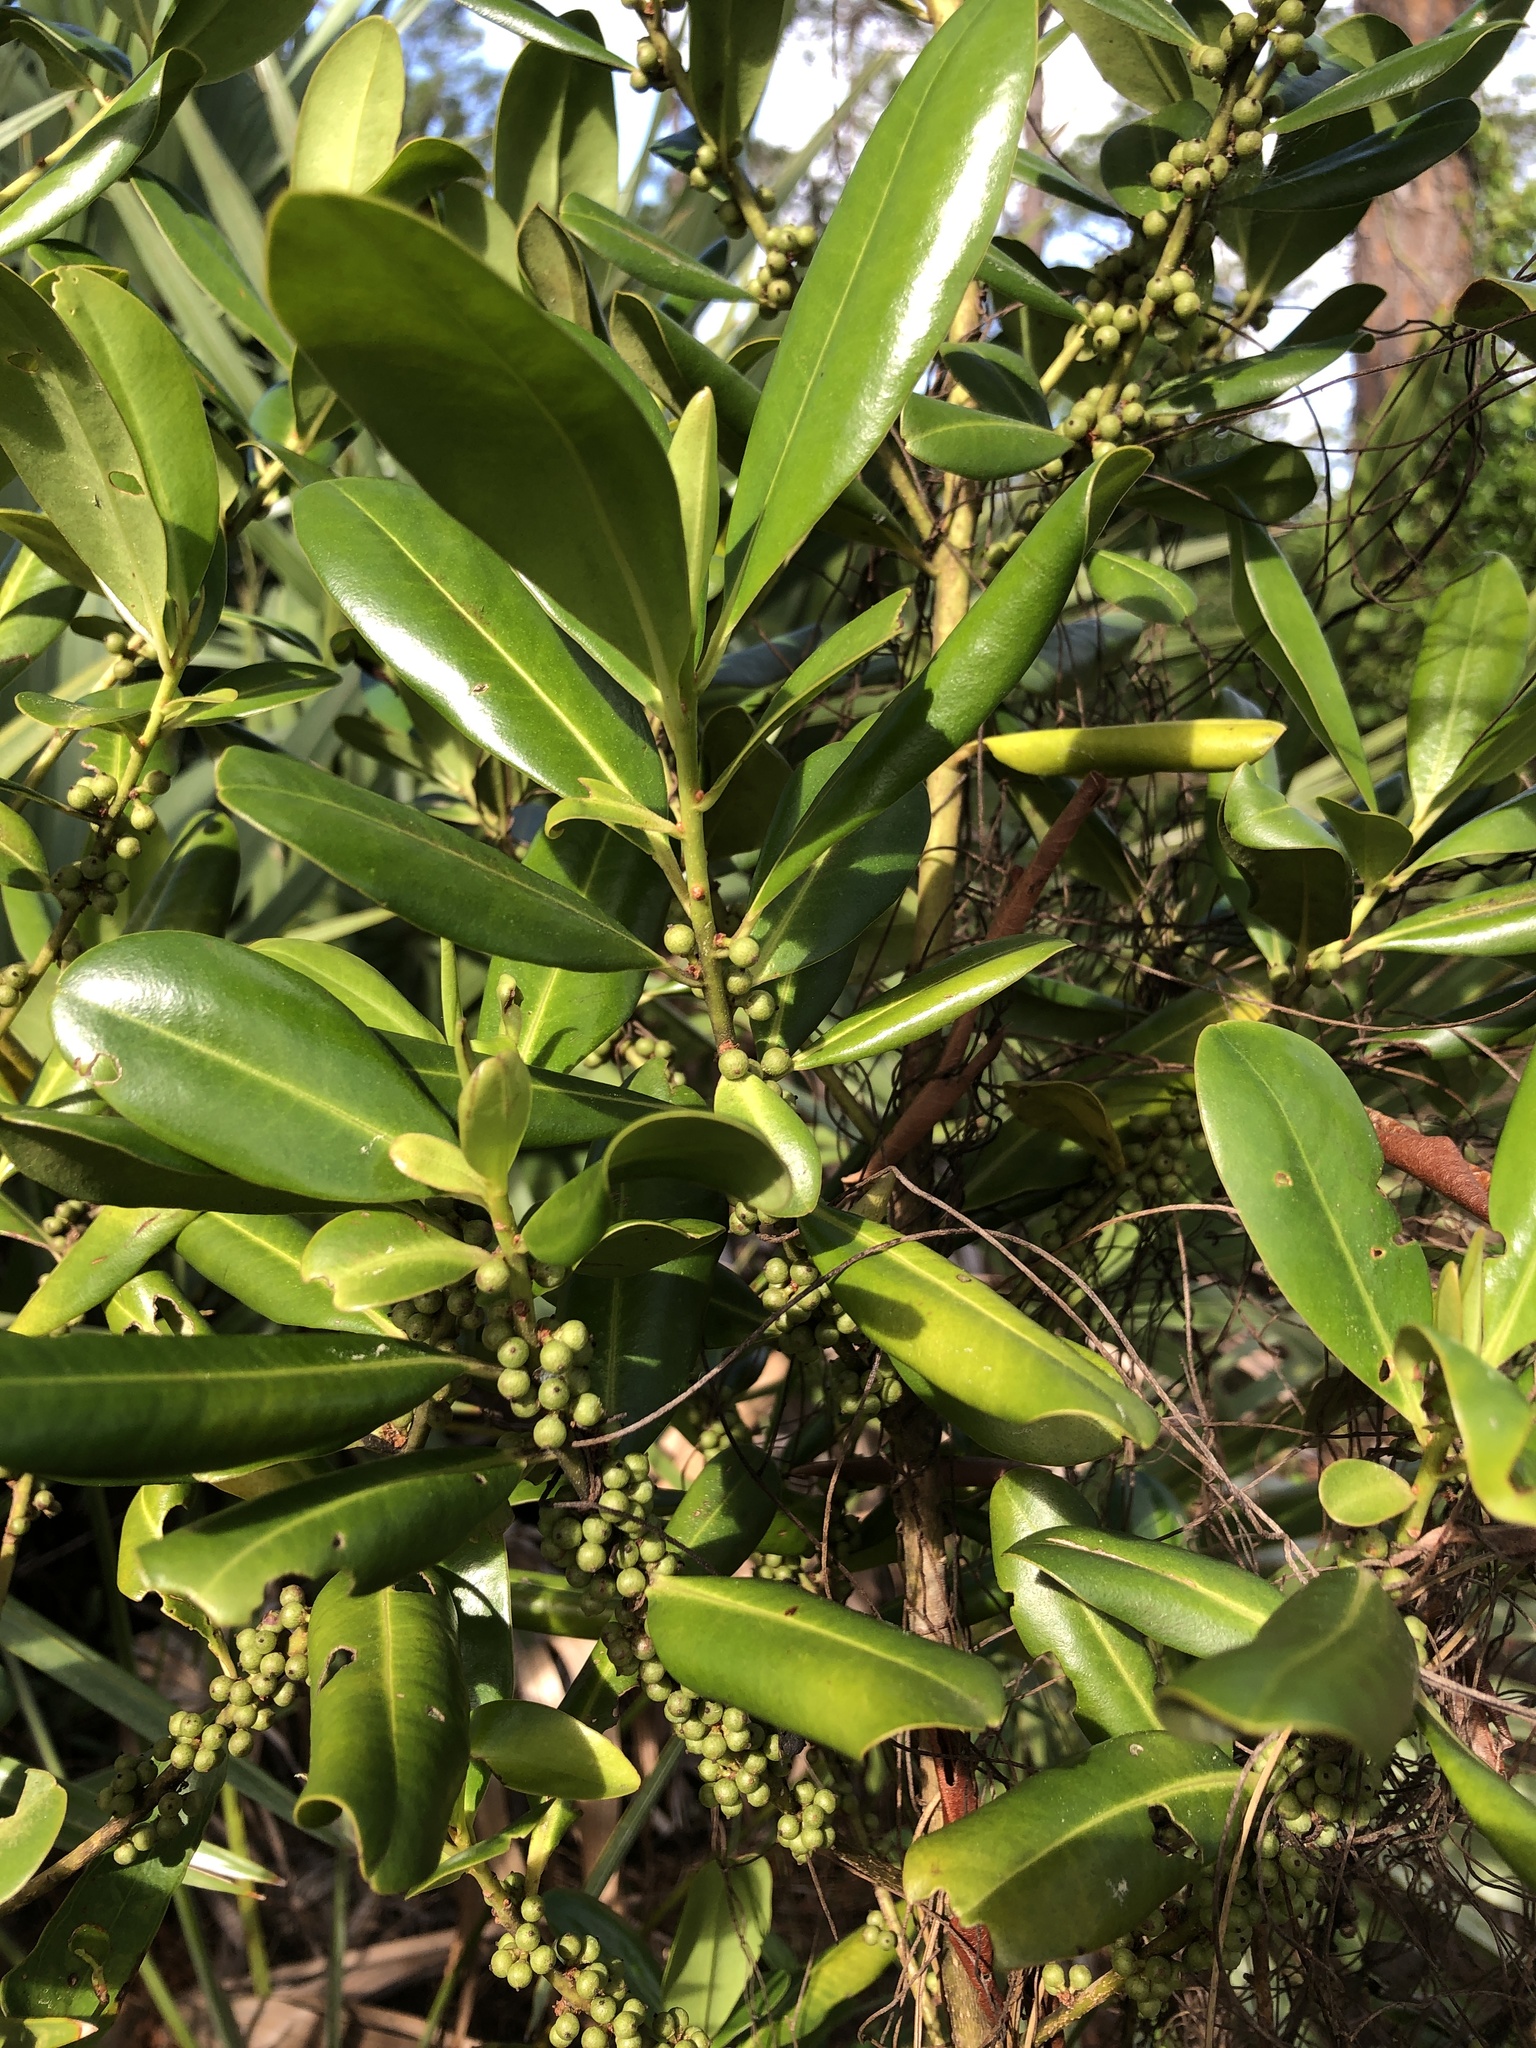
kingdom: Plantae
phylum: Tracheophyta
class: Magnoliopsida
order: Ericales
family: Primulaceae
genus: Myrsine
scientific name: Myrsine floridana
